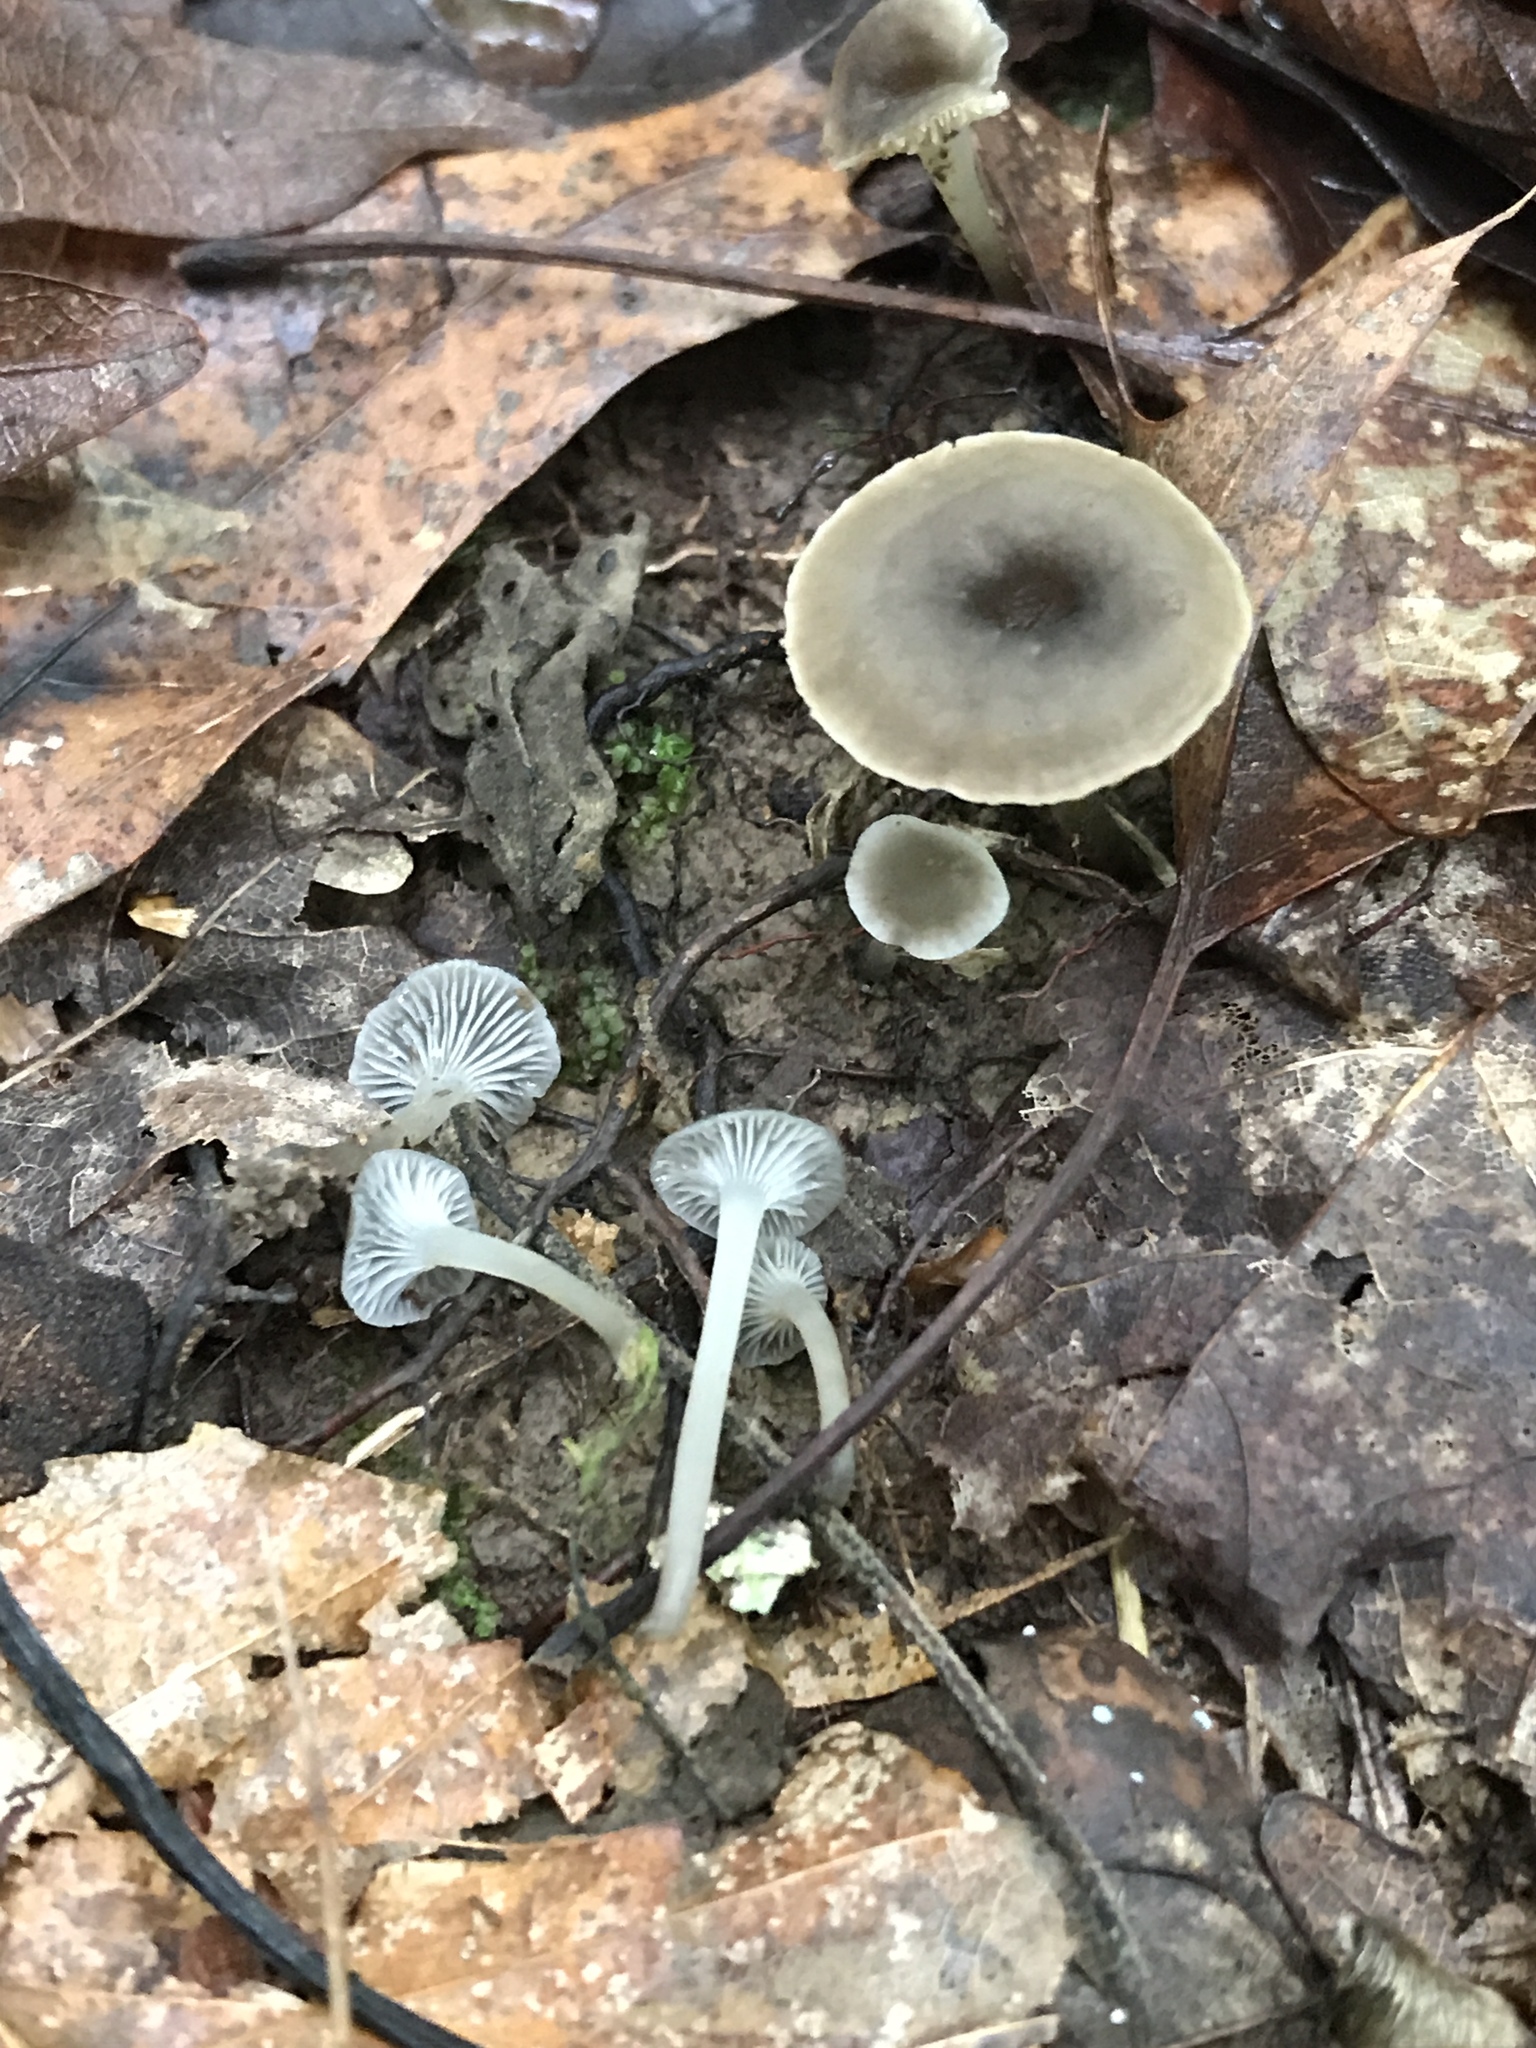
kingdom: Fungi
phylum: Basidiomycota
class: Agaricomycetes
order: Agaricales
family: Mycenaceae
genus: Hydropus
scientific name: Hydropus praedecurrens
